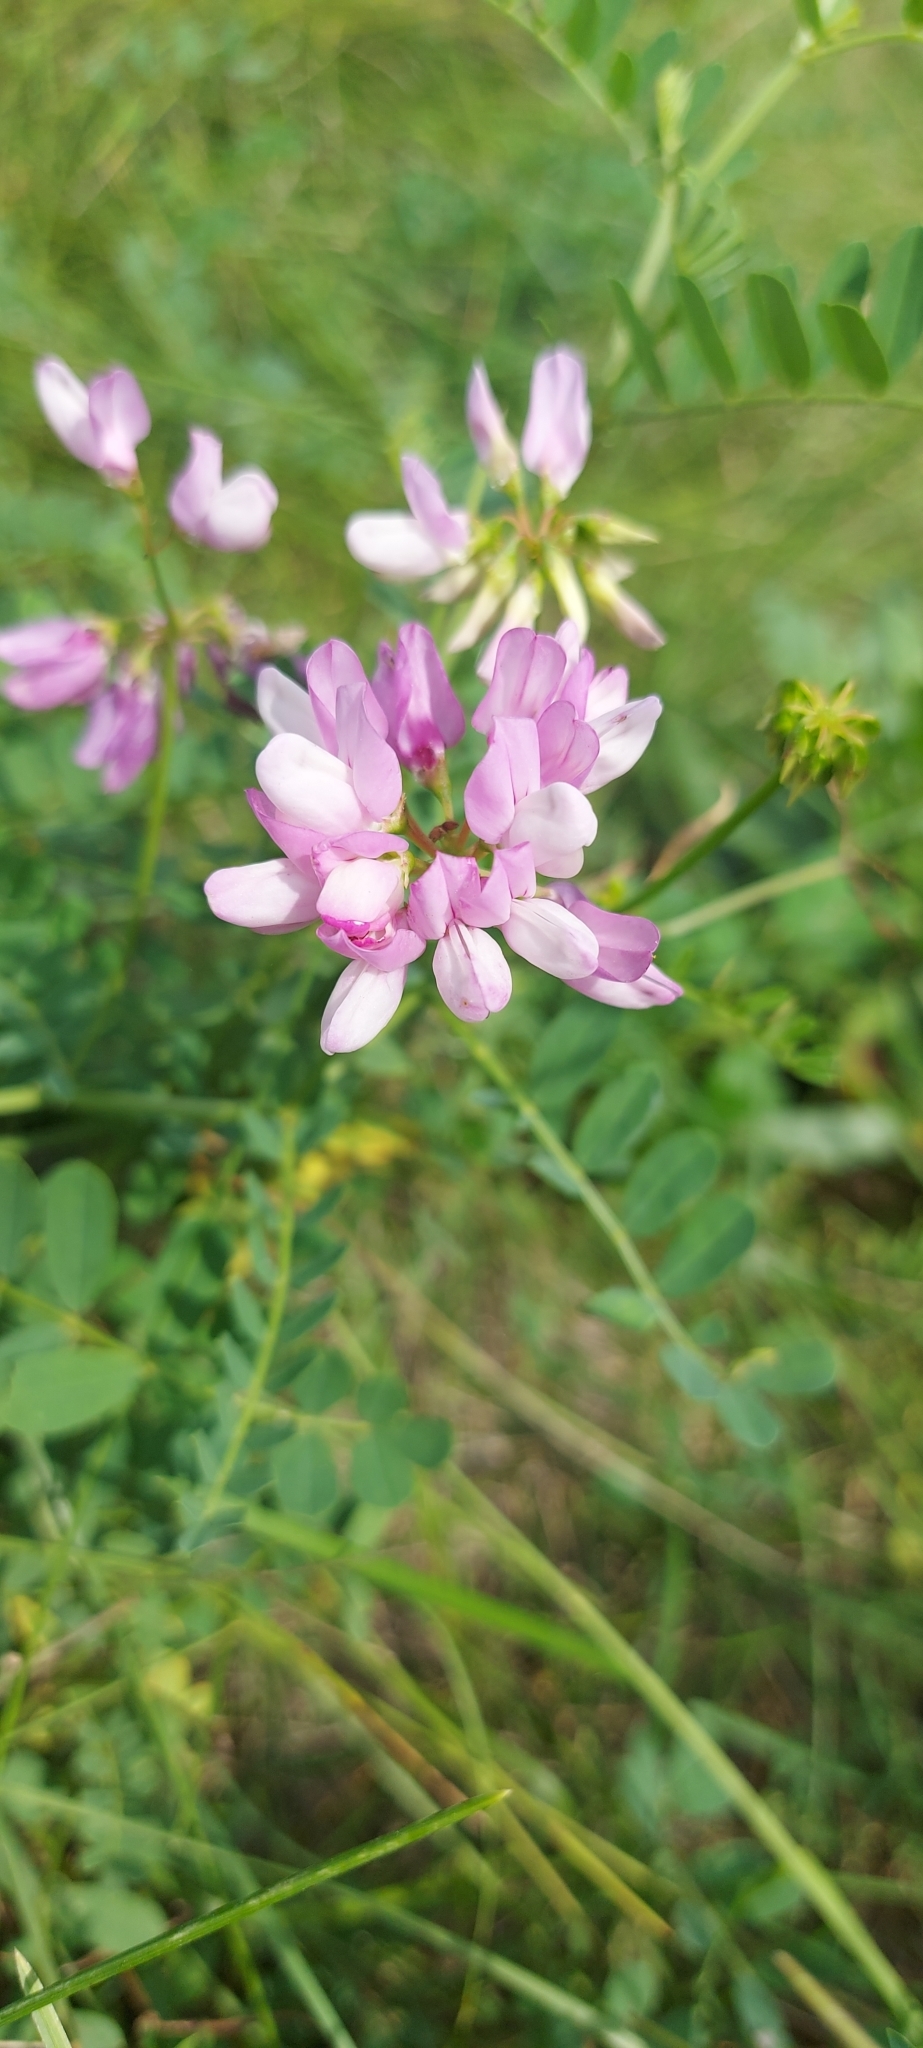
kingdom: Plantae
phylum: Tracheophyta
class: Magnoliopsida
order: Fabales
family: Fabaceae
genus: Coronilla
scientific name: Coronilla varia
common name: Crownvetch
